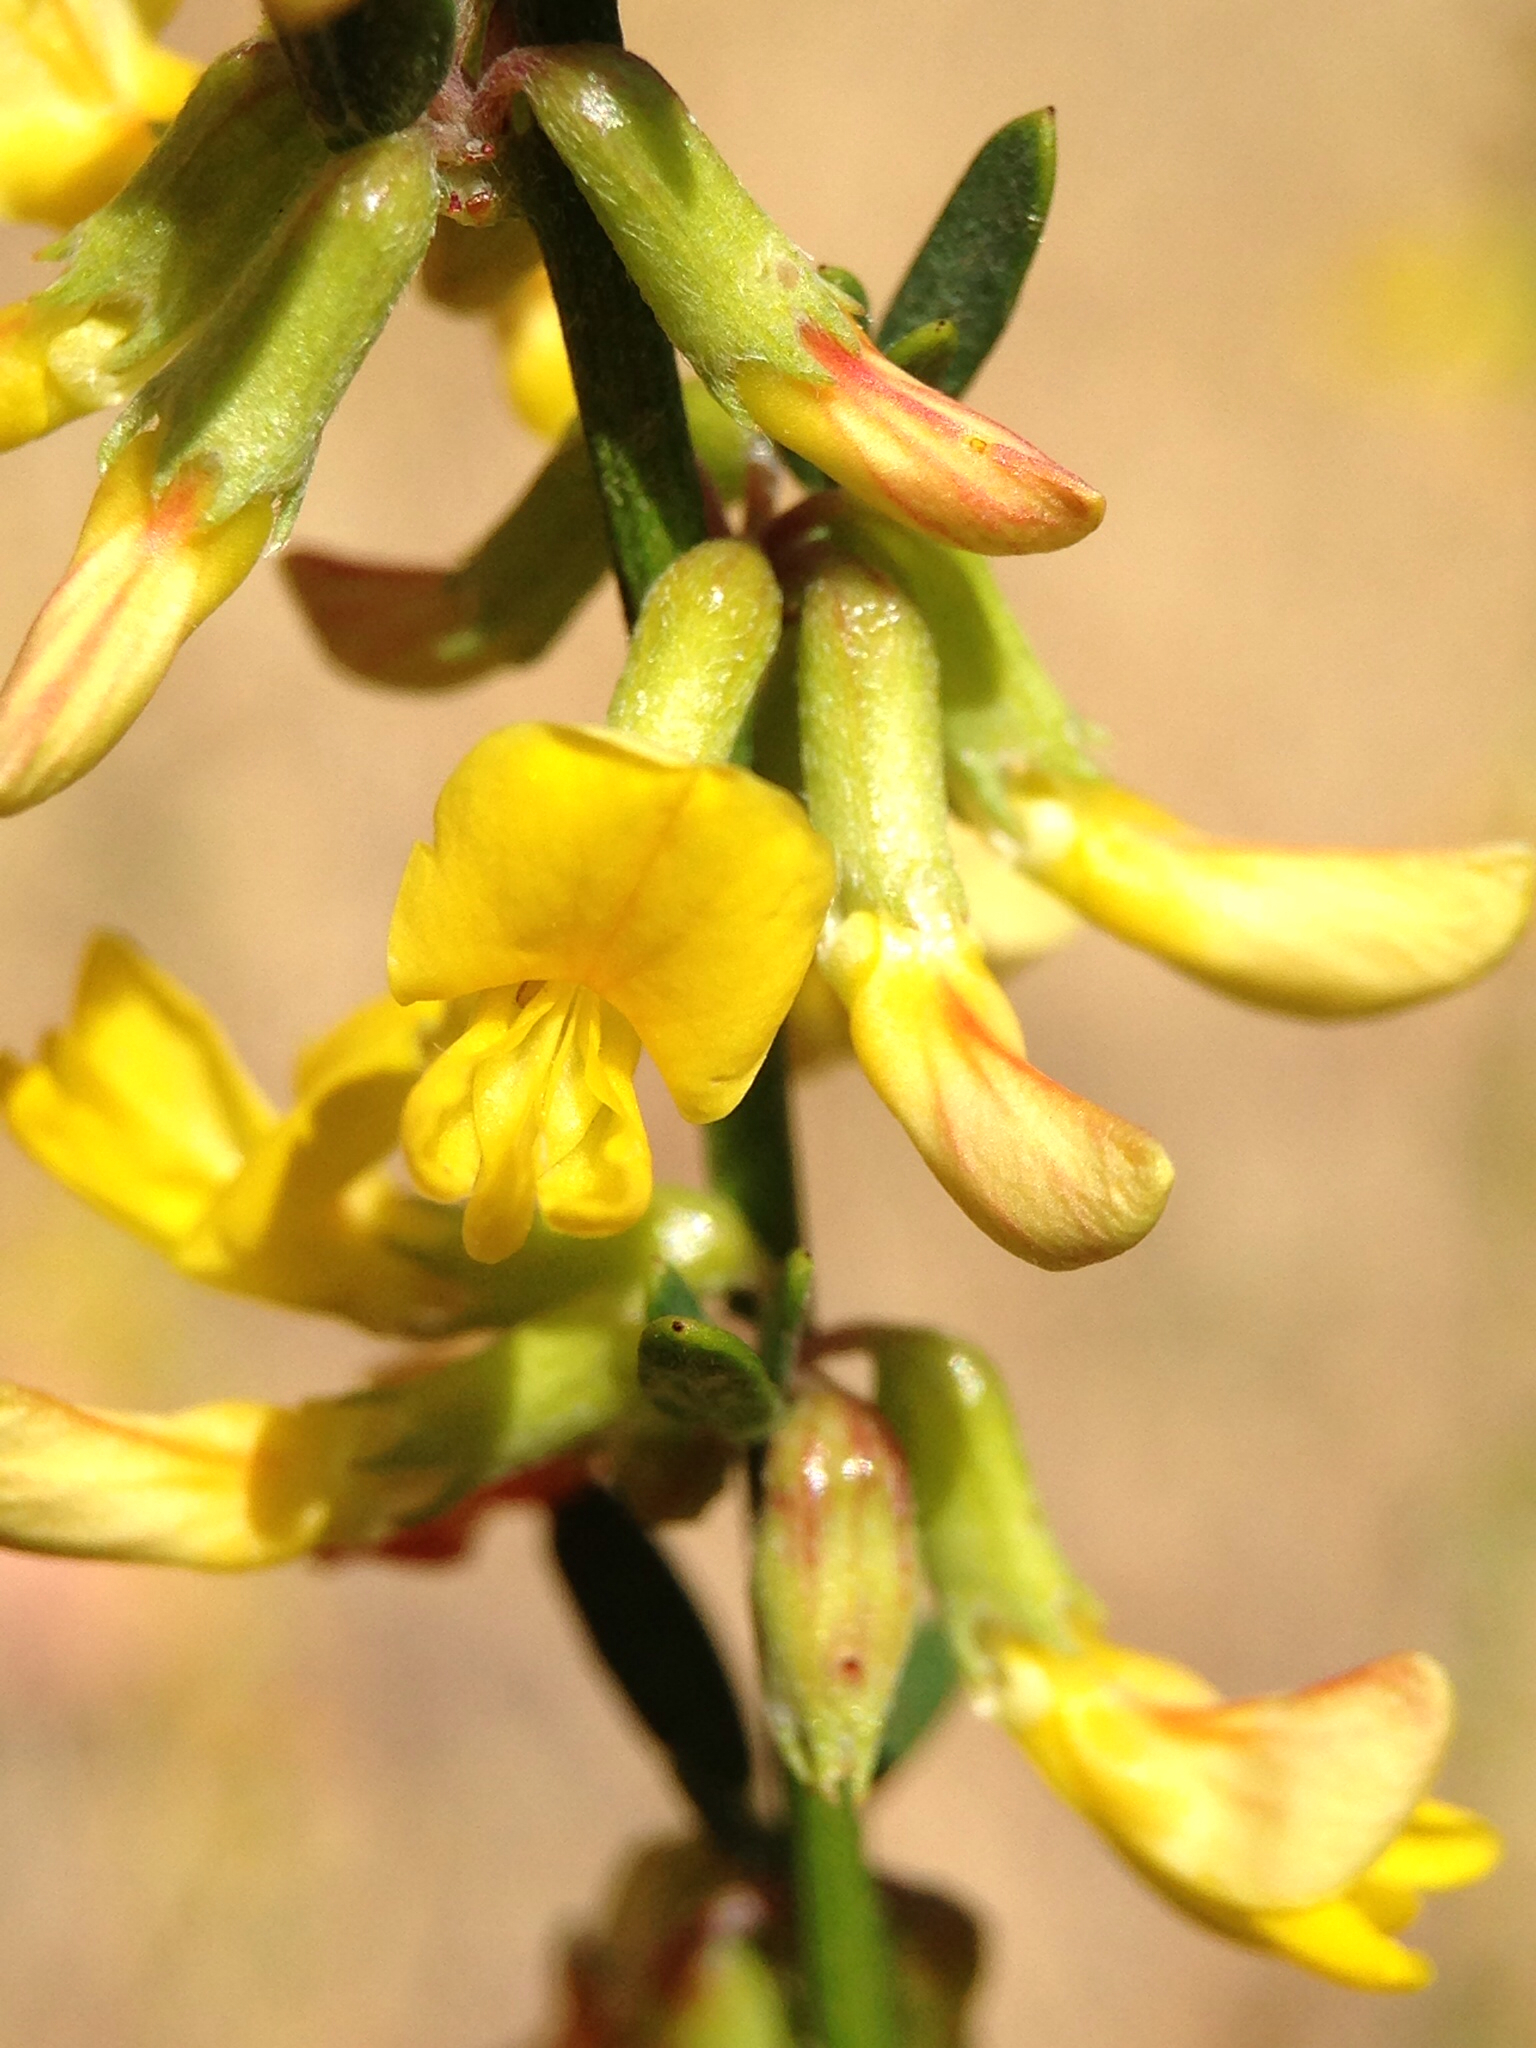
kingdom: Plantae
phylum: Tracheophyta
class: Magnoliopsida
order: Fabales
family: Fabaceae
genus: Acmispon
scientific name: Acmispon glaber
